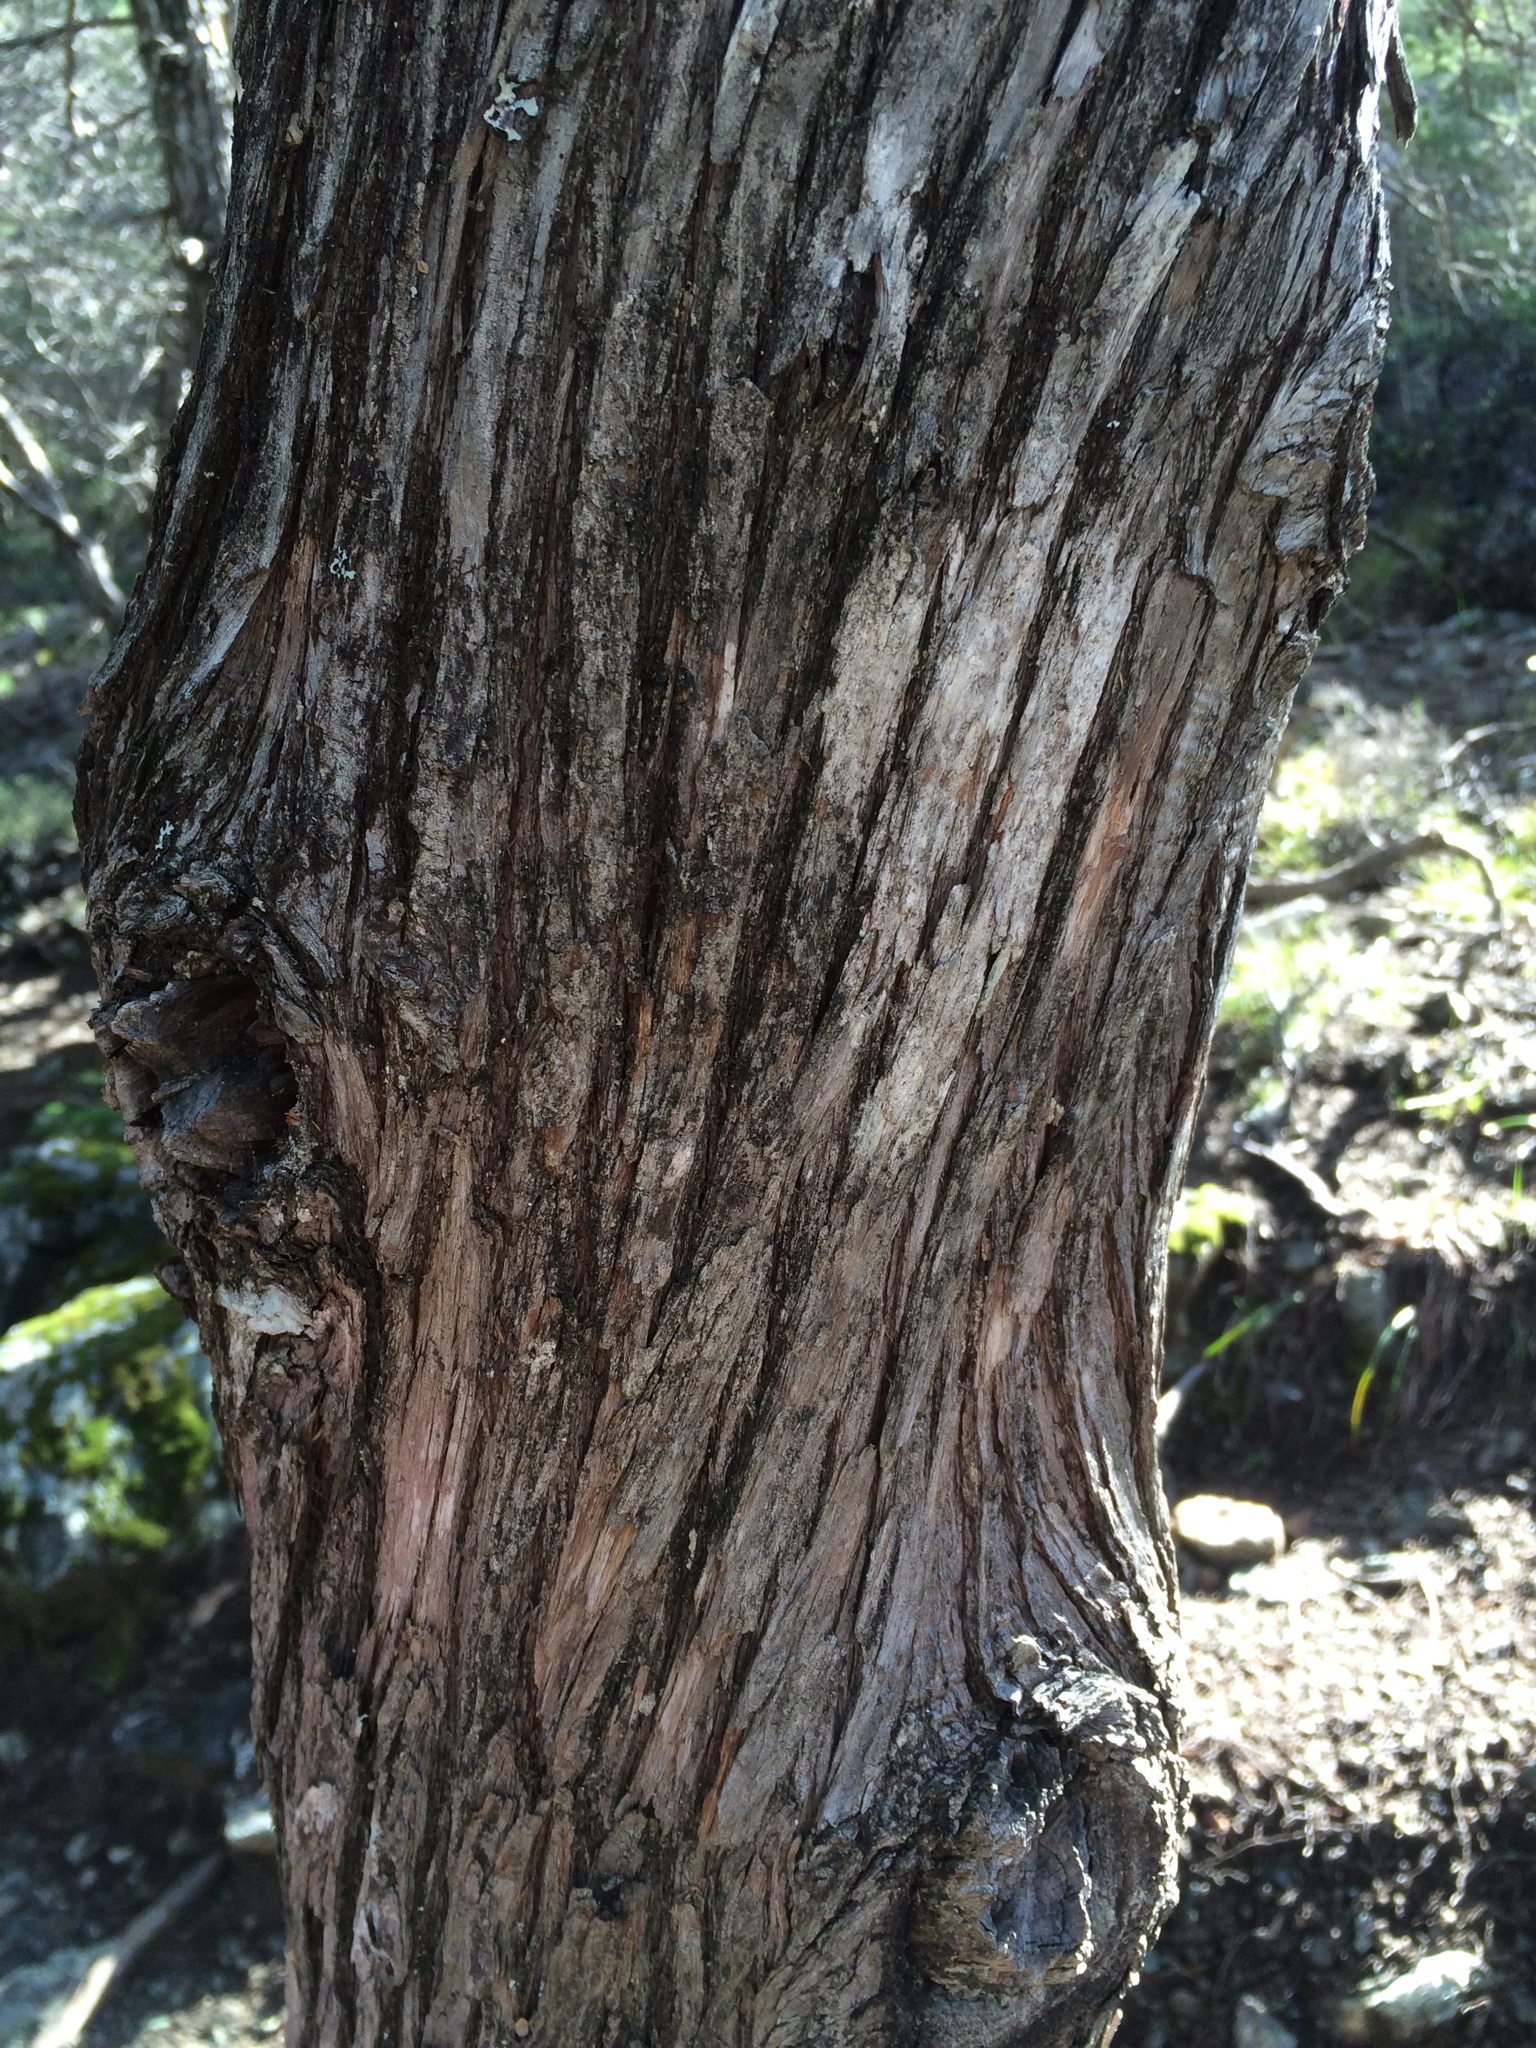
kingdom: Plantae
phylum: Tracheophyta
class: Pinopsida
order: Pinales
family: Cupressaceae
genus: Cupressus
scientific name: Cupressus sargentii
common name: Sargent cypress
